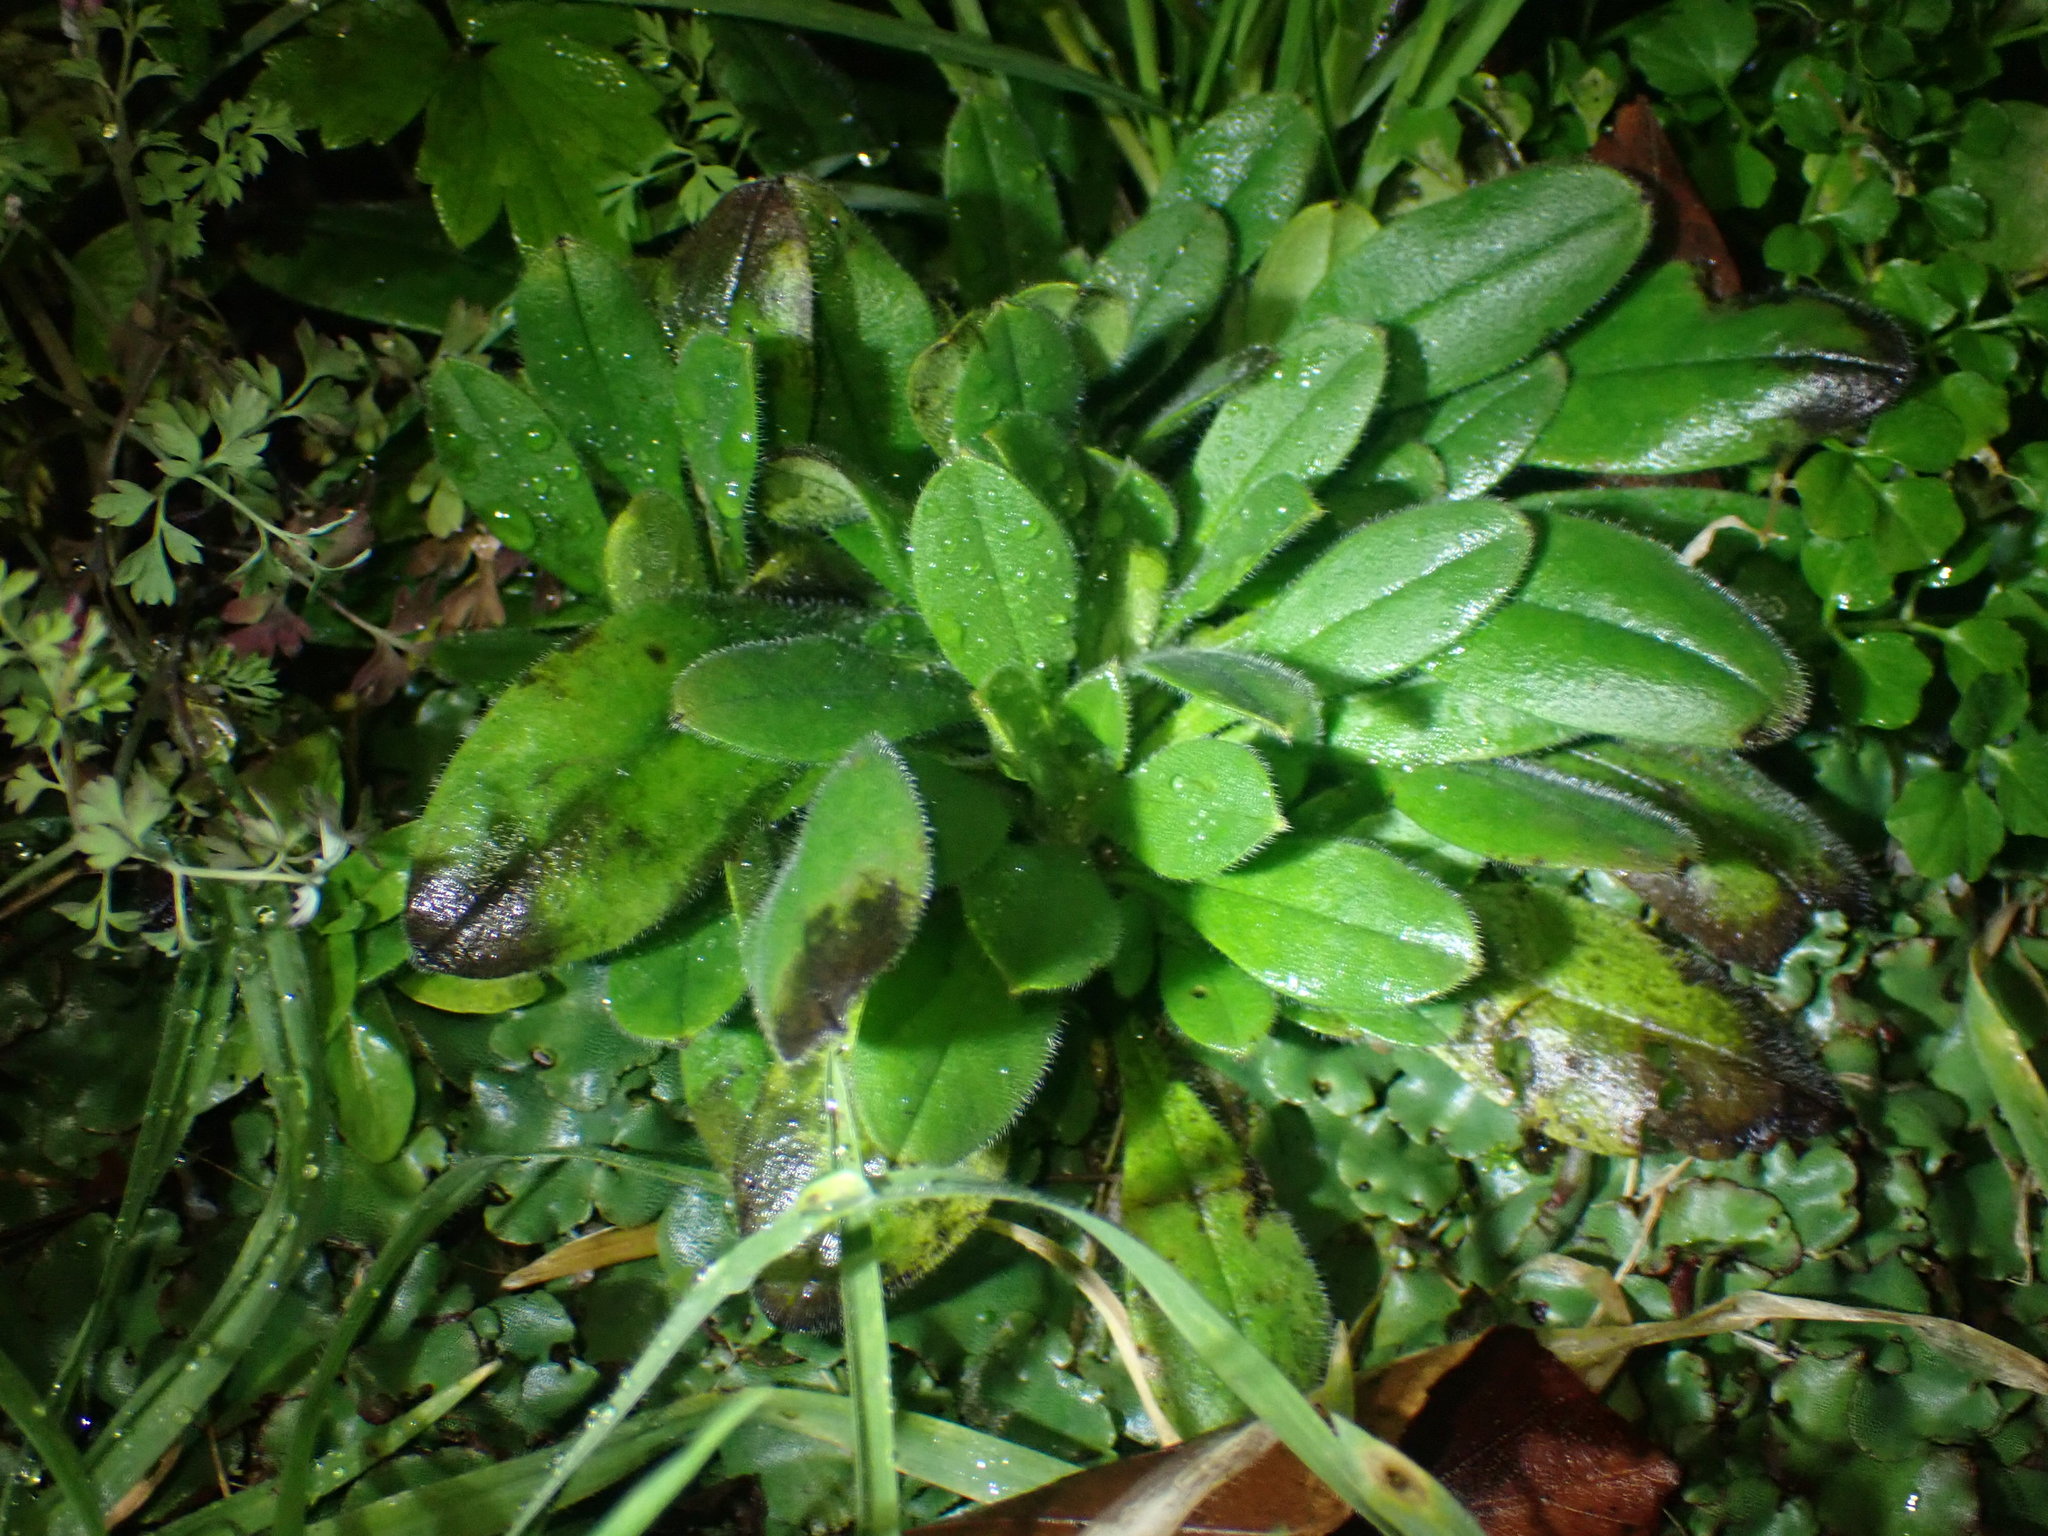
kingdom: Plantae
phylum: Tracheophyta
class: Magnoliopsida
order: Boraginales
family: Boraginaceae
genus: Myosotis
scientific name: Myosotis sylvatica
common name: Wood forget-me-not
